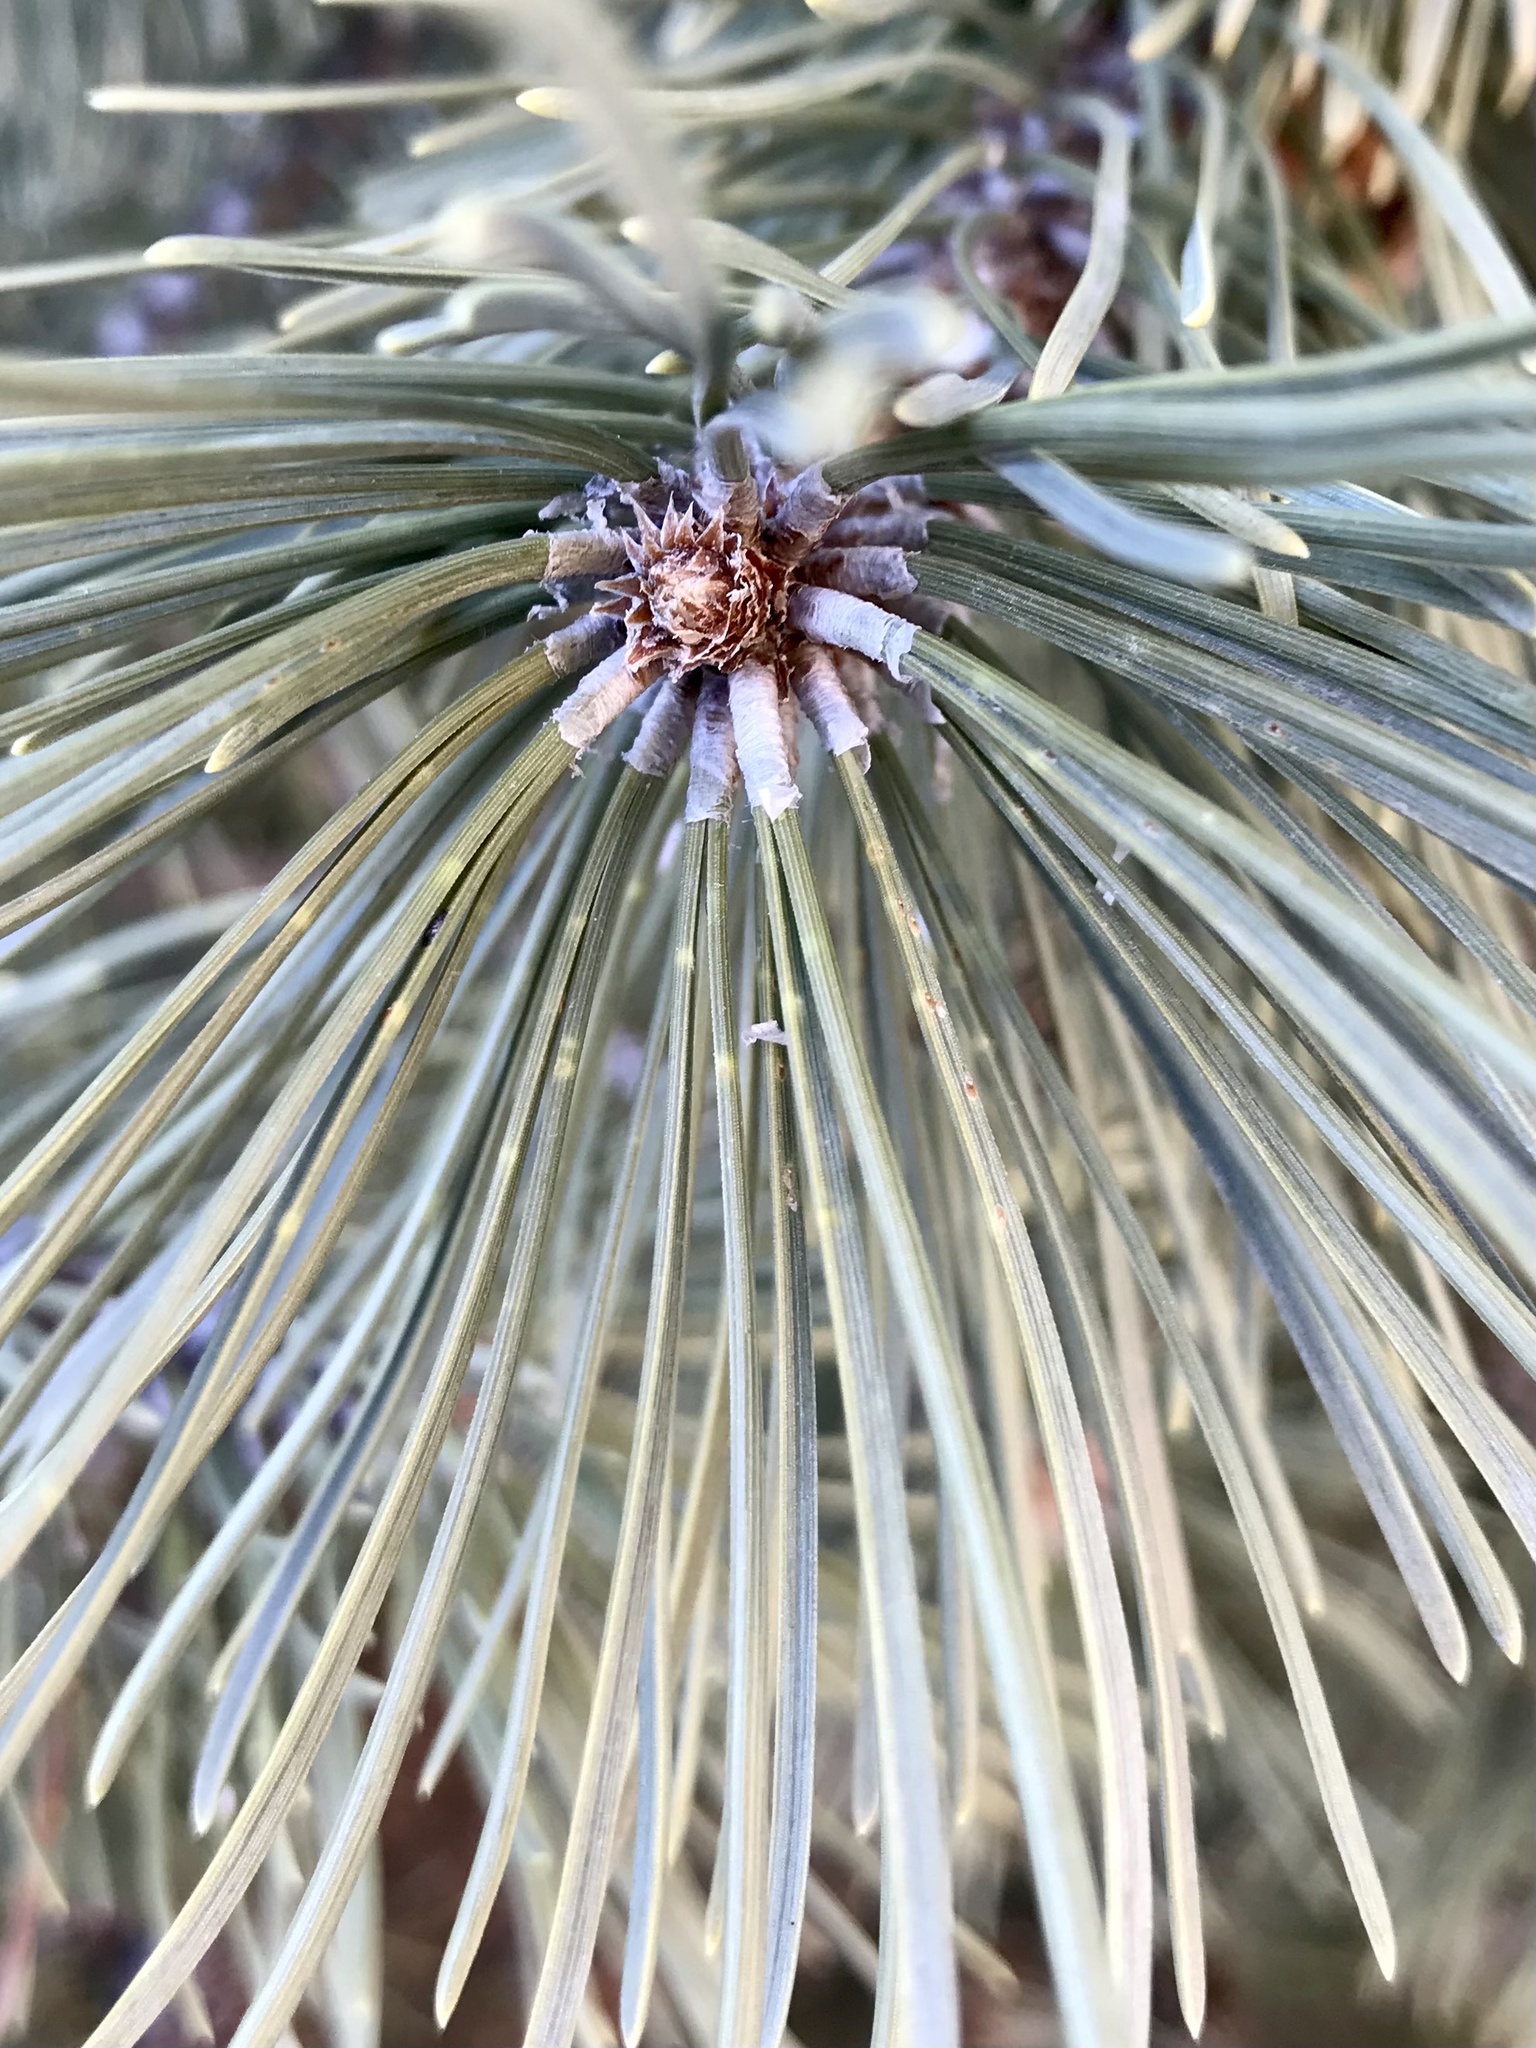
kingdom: Animalia
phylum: Arthropoda
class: Insecta
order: Hemiptera
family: Diaspididae
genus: Chionaspis
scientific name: Chionaspis pinifoliae
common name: Pine leaf scale
